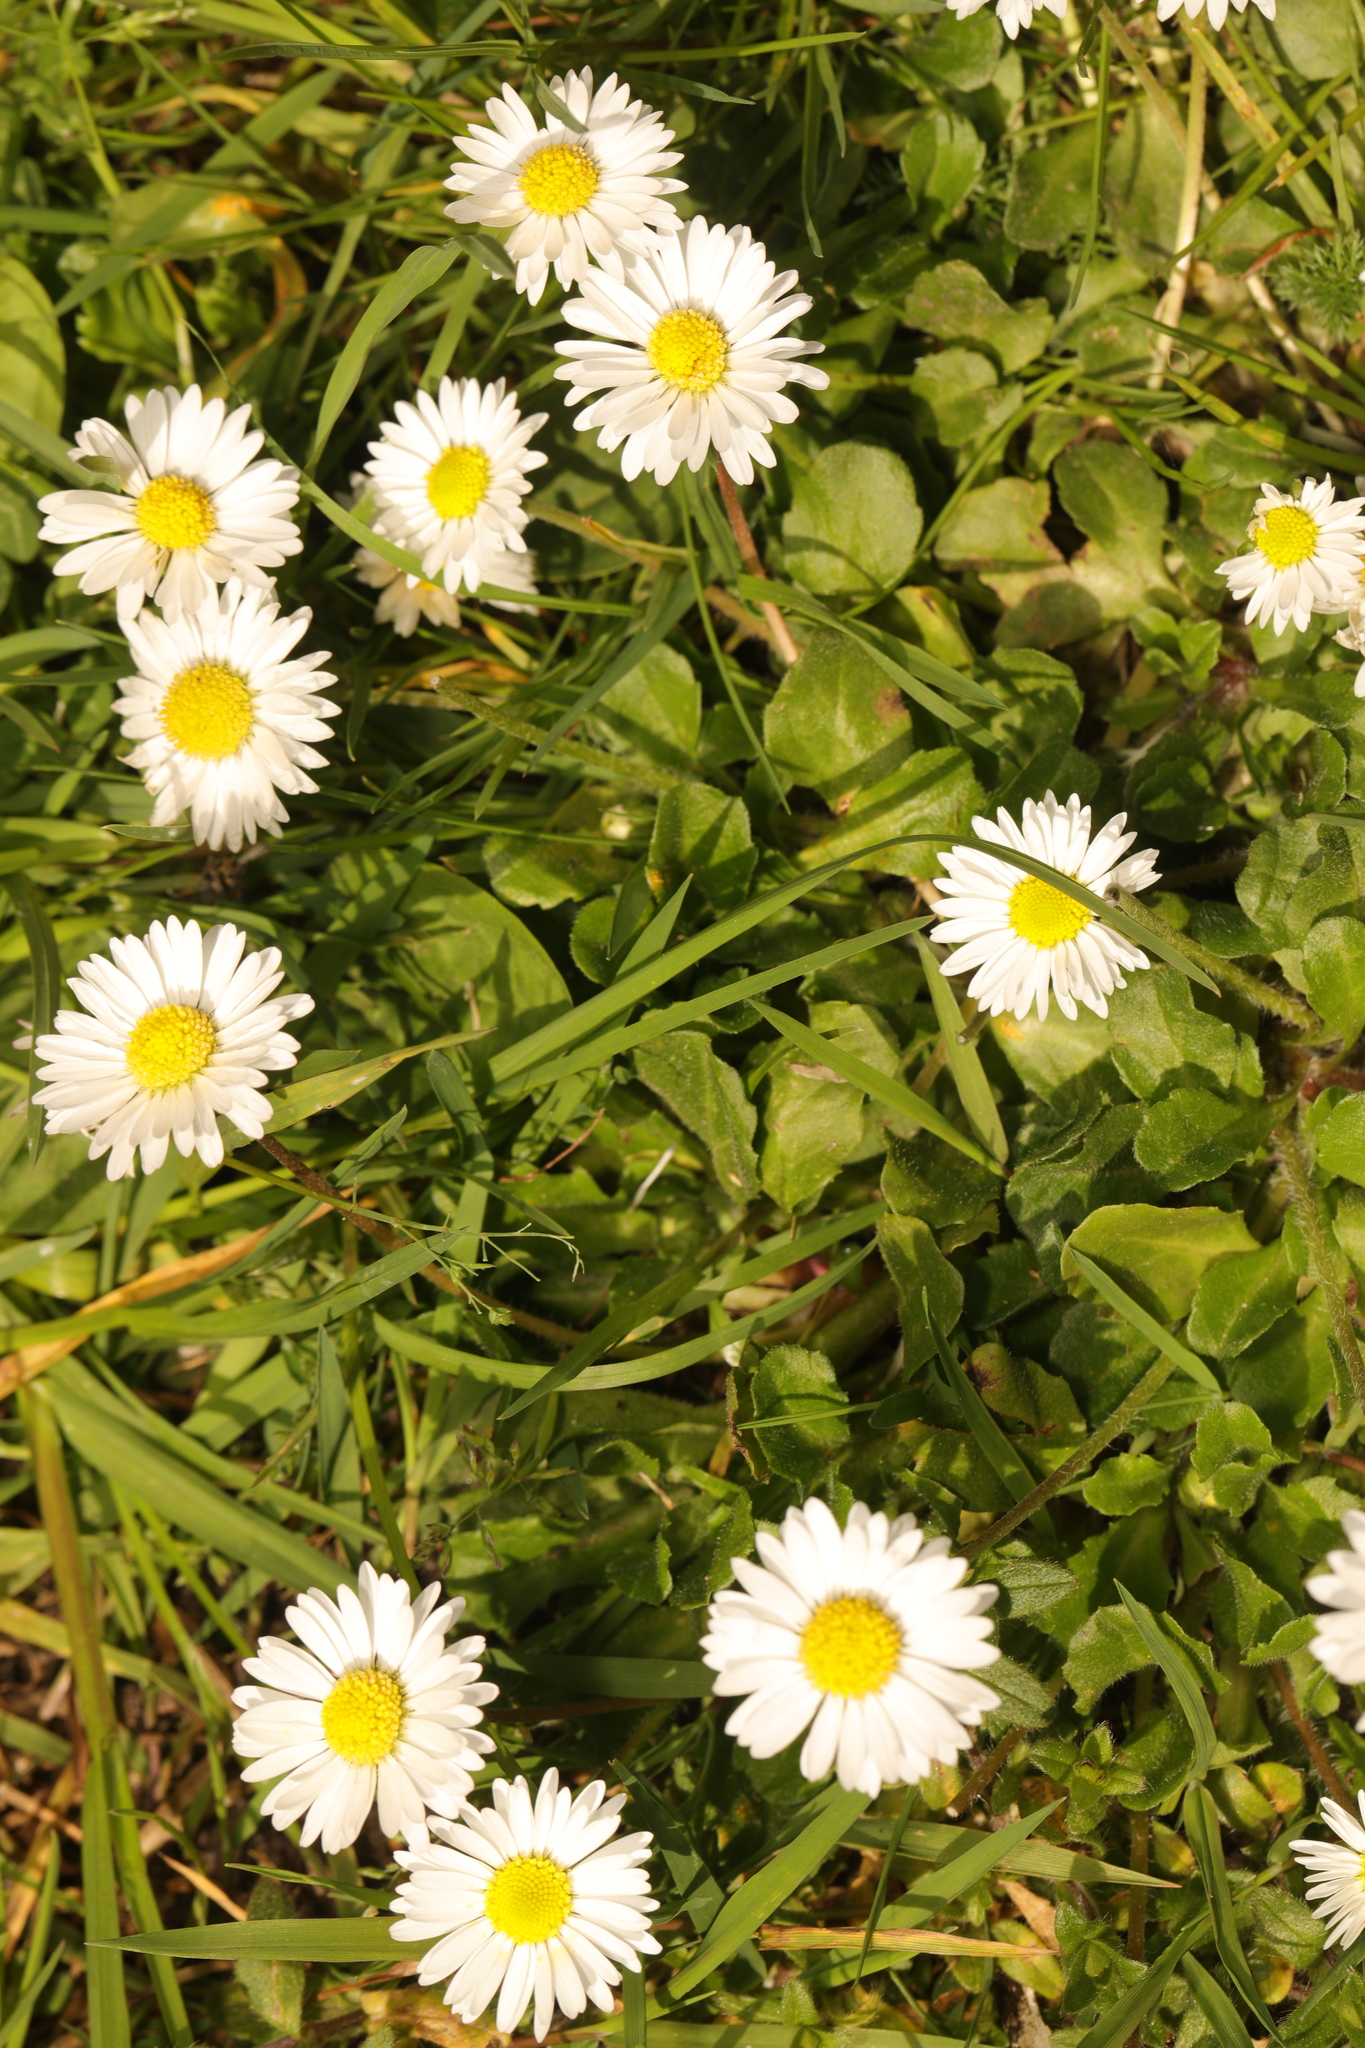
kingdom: Plantae
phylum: Tracheophyta
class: Magnoliopsida
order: Asterales
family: Asteraceae
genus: Bellis
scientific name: Bellis perennis
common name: Lawndaisy
